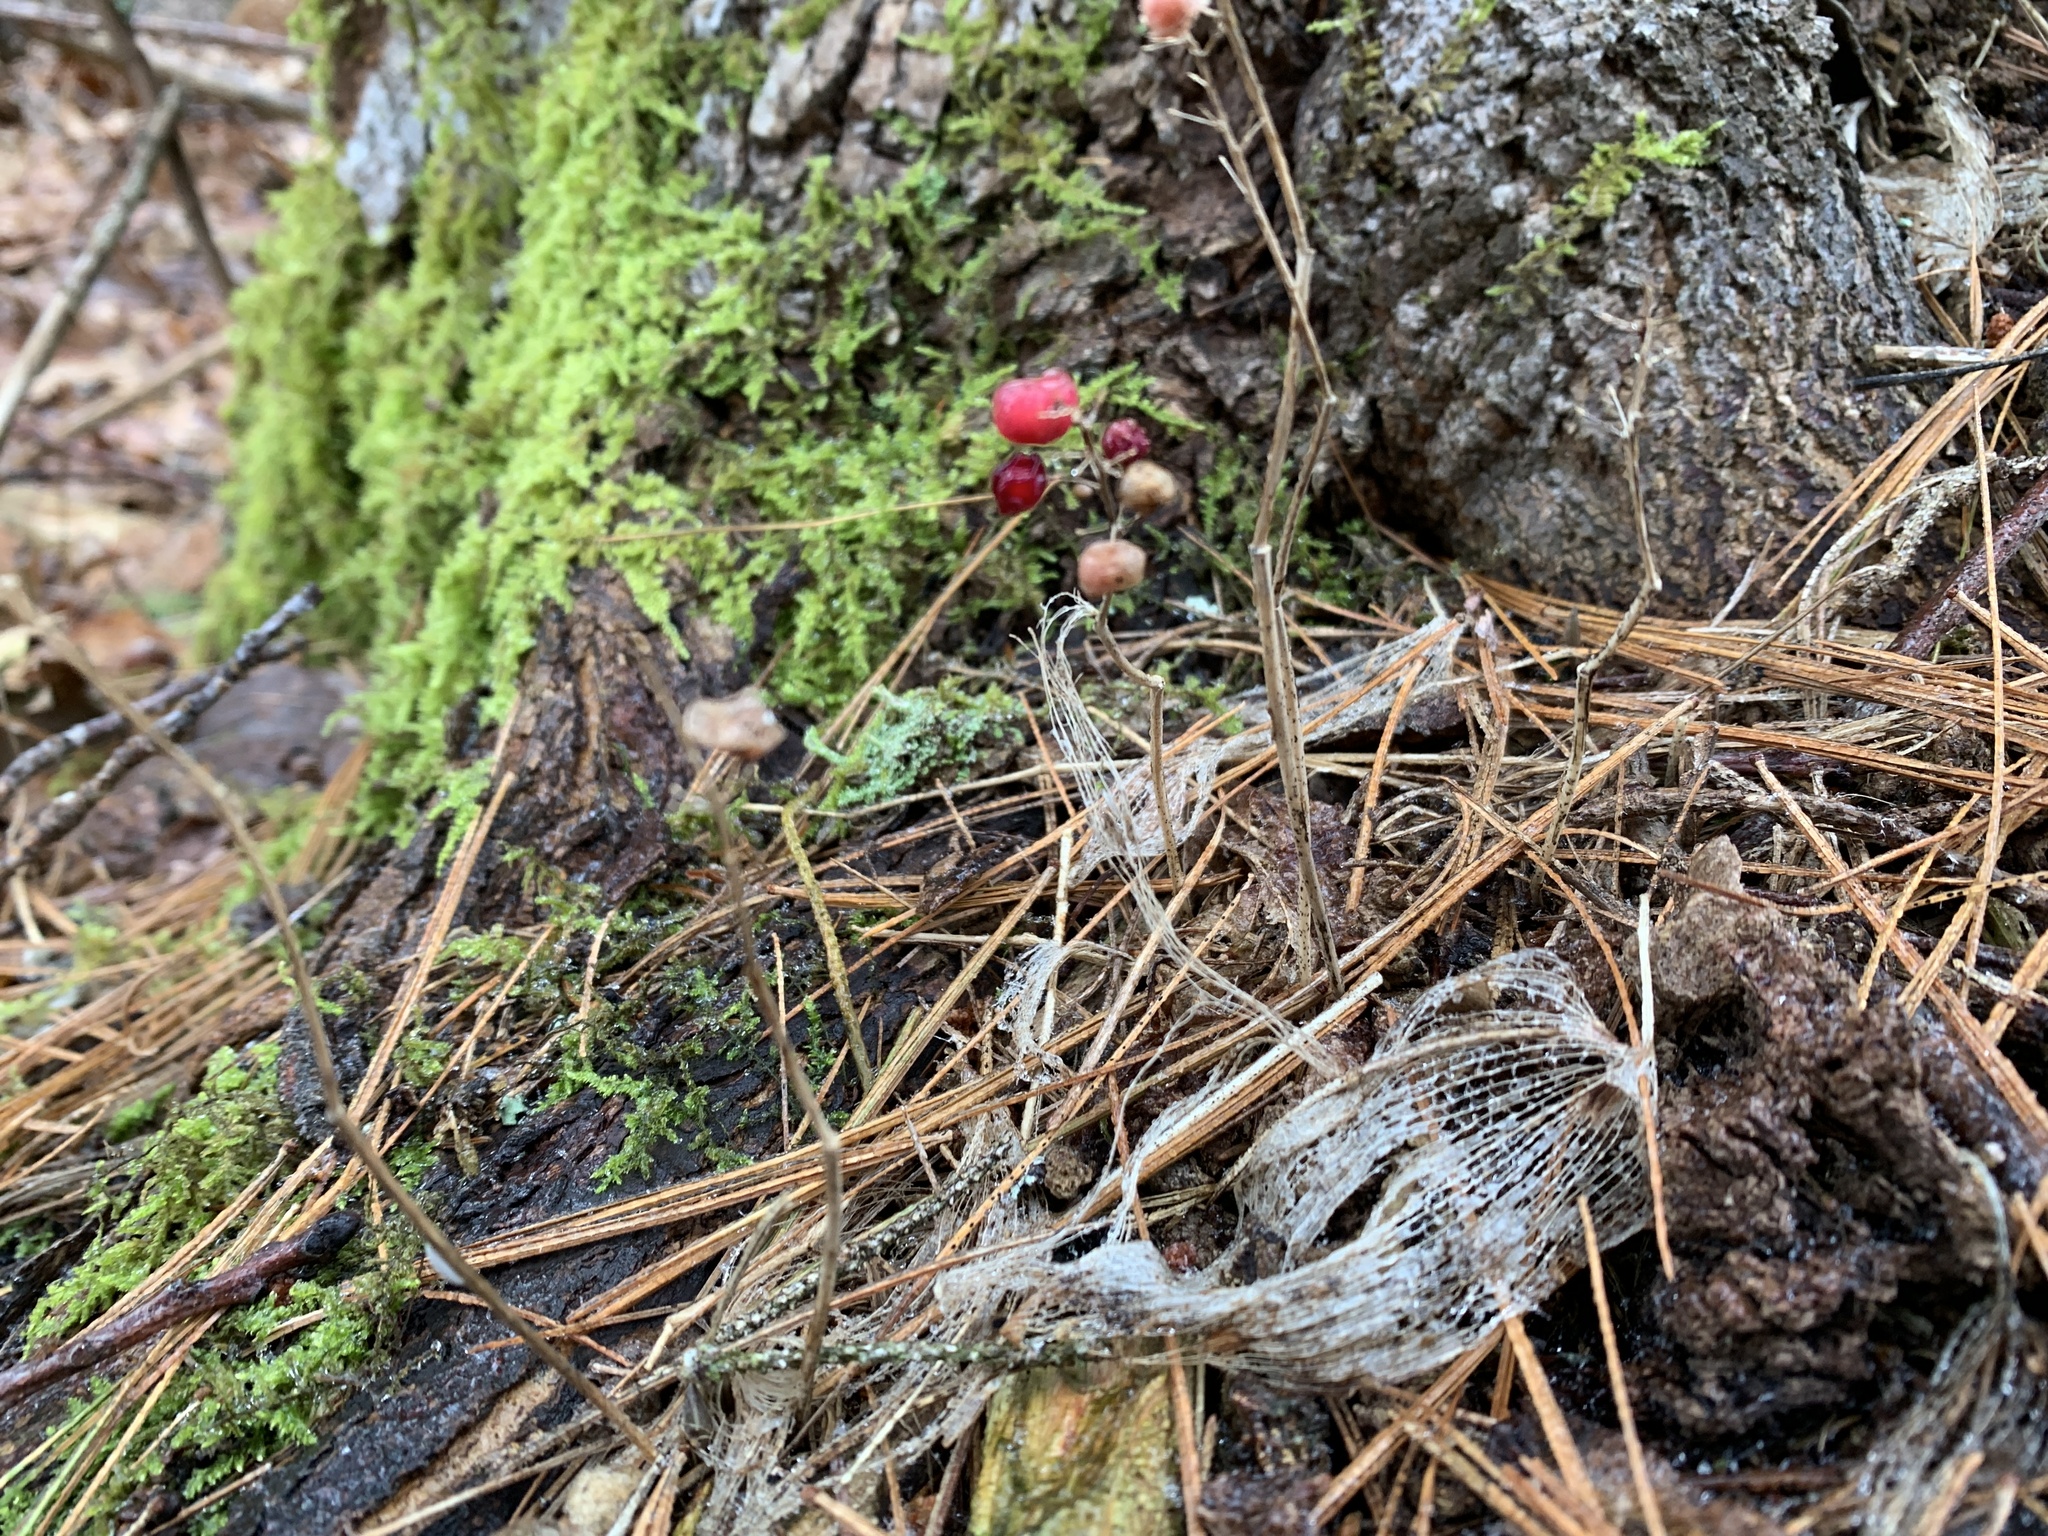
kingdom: Plantae
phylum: Tracheophyta
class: Liliopsida
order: Asparagales
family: Asparagaceae
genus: Maianthemum
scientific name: Maianthemum canadense
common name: False lily-of-the-valley
